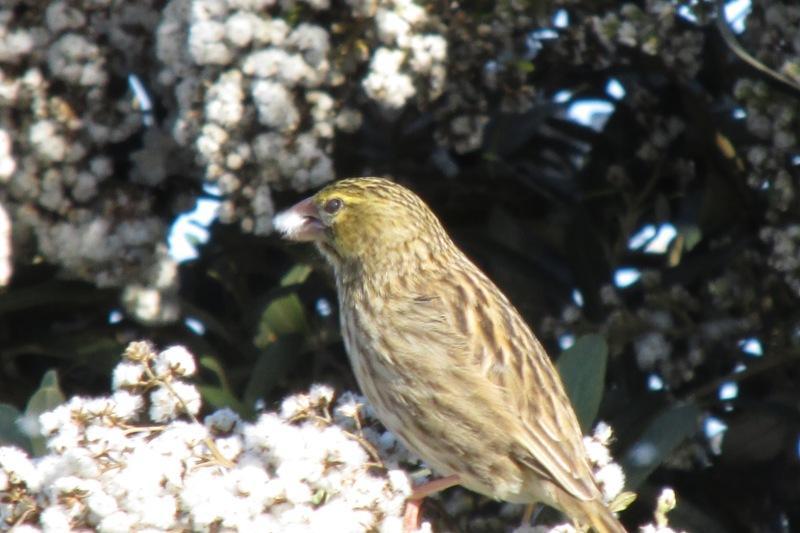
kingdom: Animalia
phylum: Chordata
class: Aves
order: Passeriformes
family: Ploceidae
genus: Euplectes
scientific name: Euplectes capensis
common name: Yellow bishop
